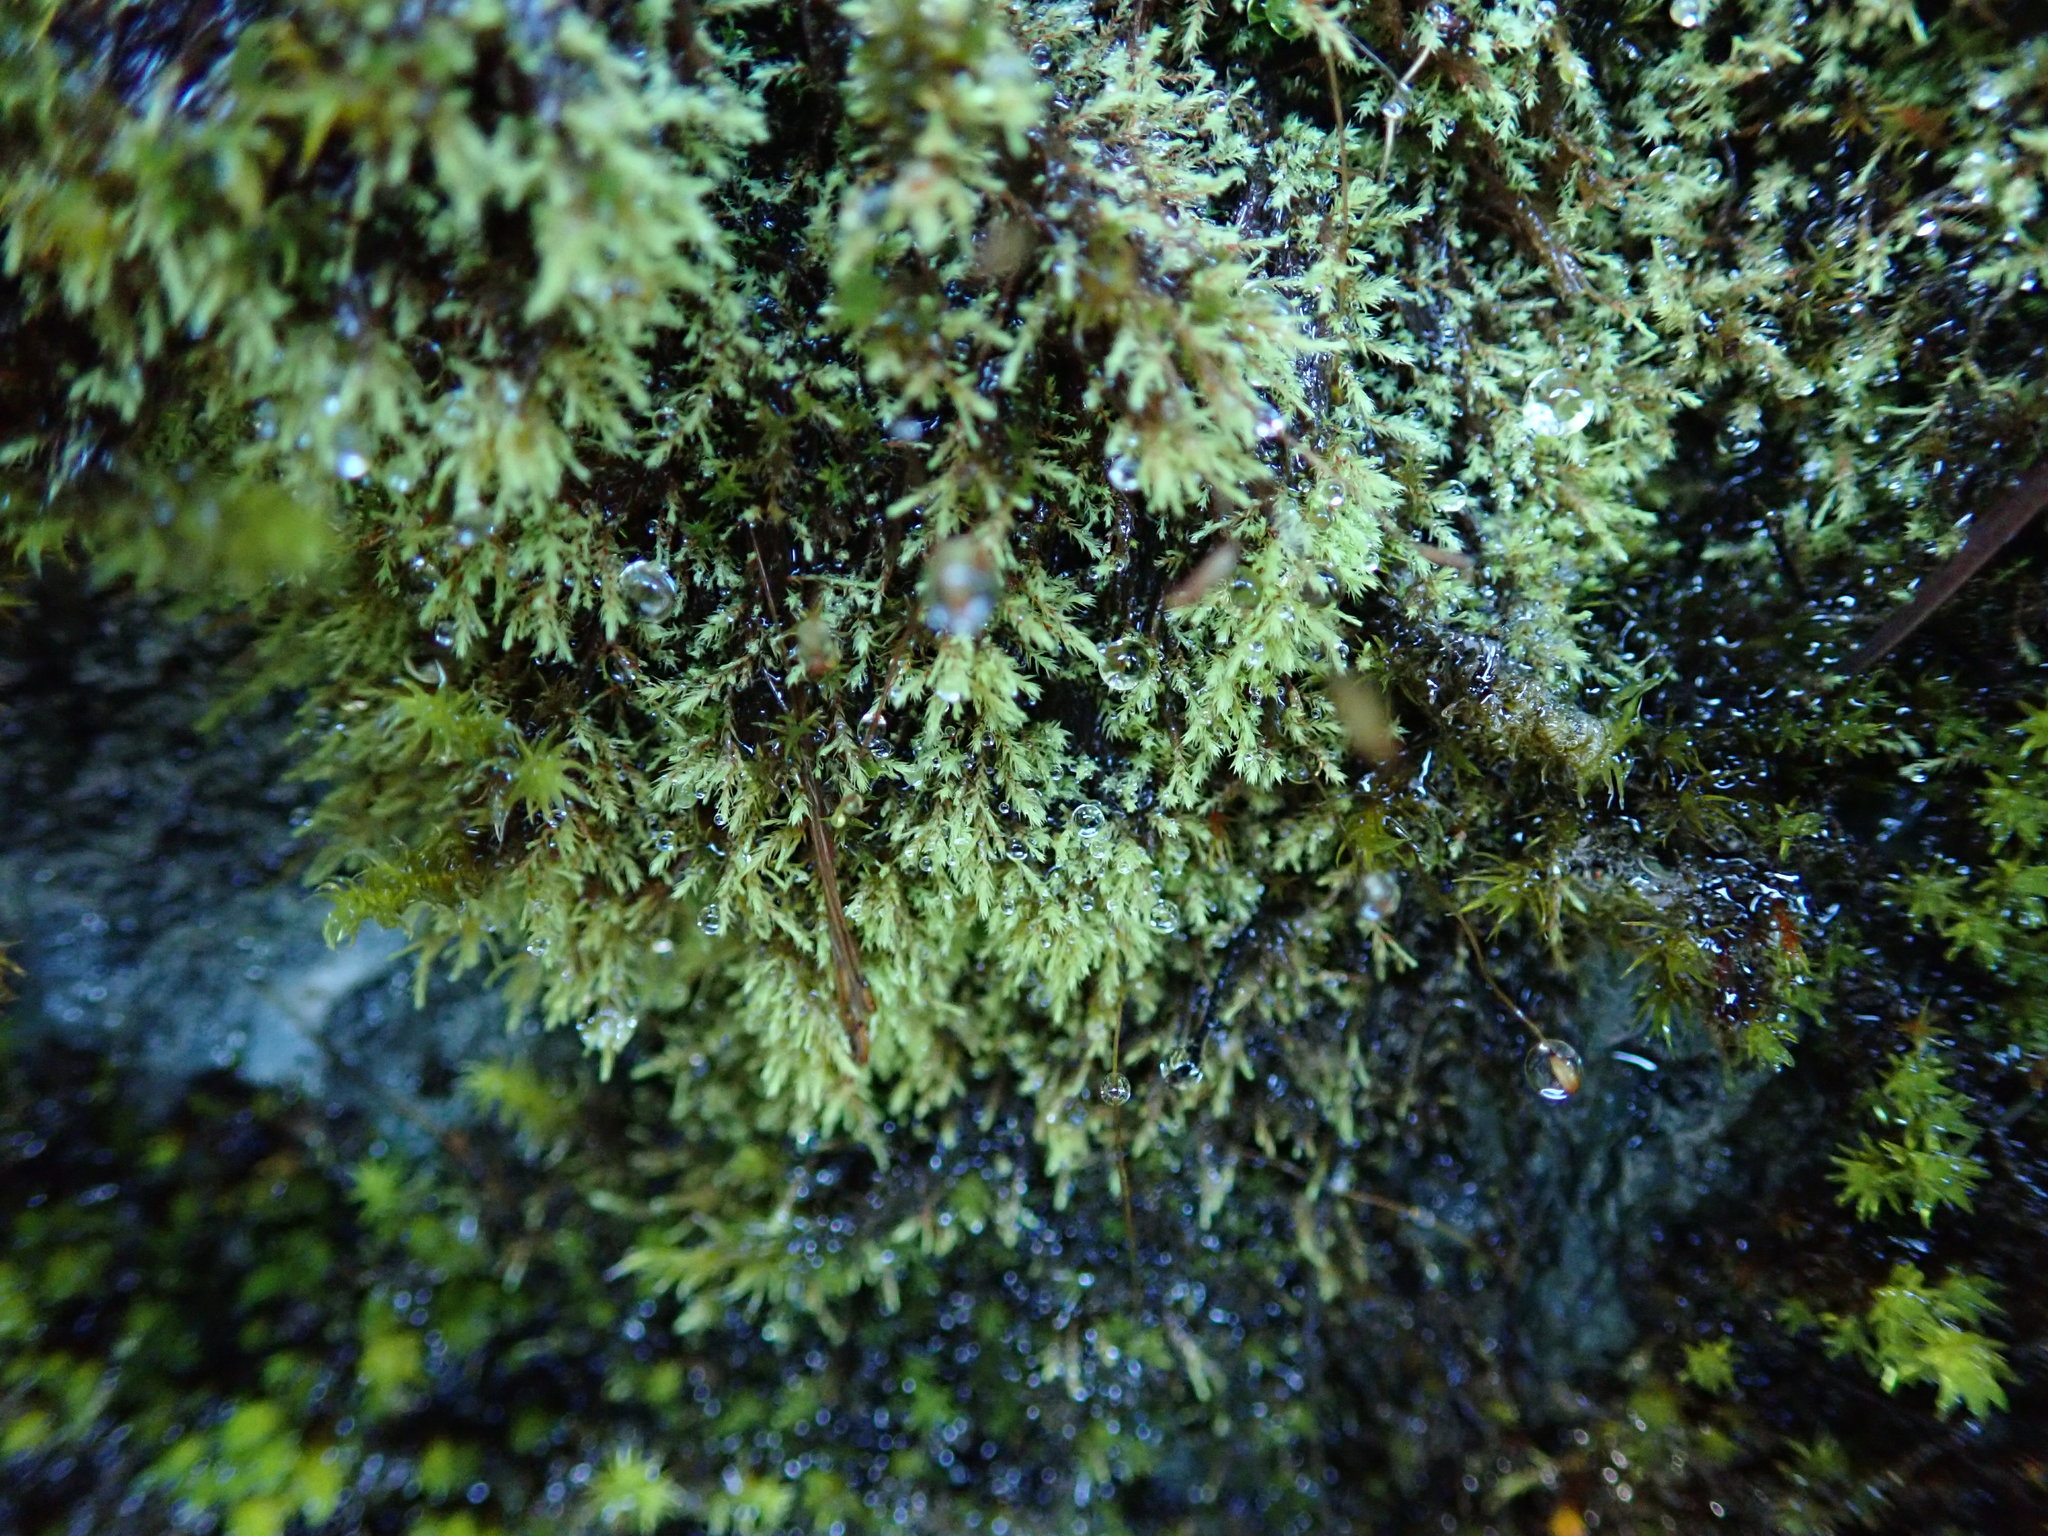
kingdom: Plantae
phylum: Bryophyta
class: Bryopsida
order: Bartramiales
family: Bartramiaceae
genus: Philonotis
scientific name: Philonotis fontana
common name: Fountain apple-moss
